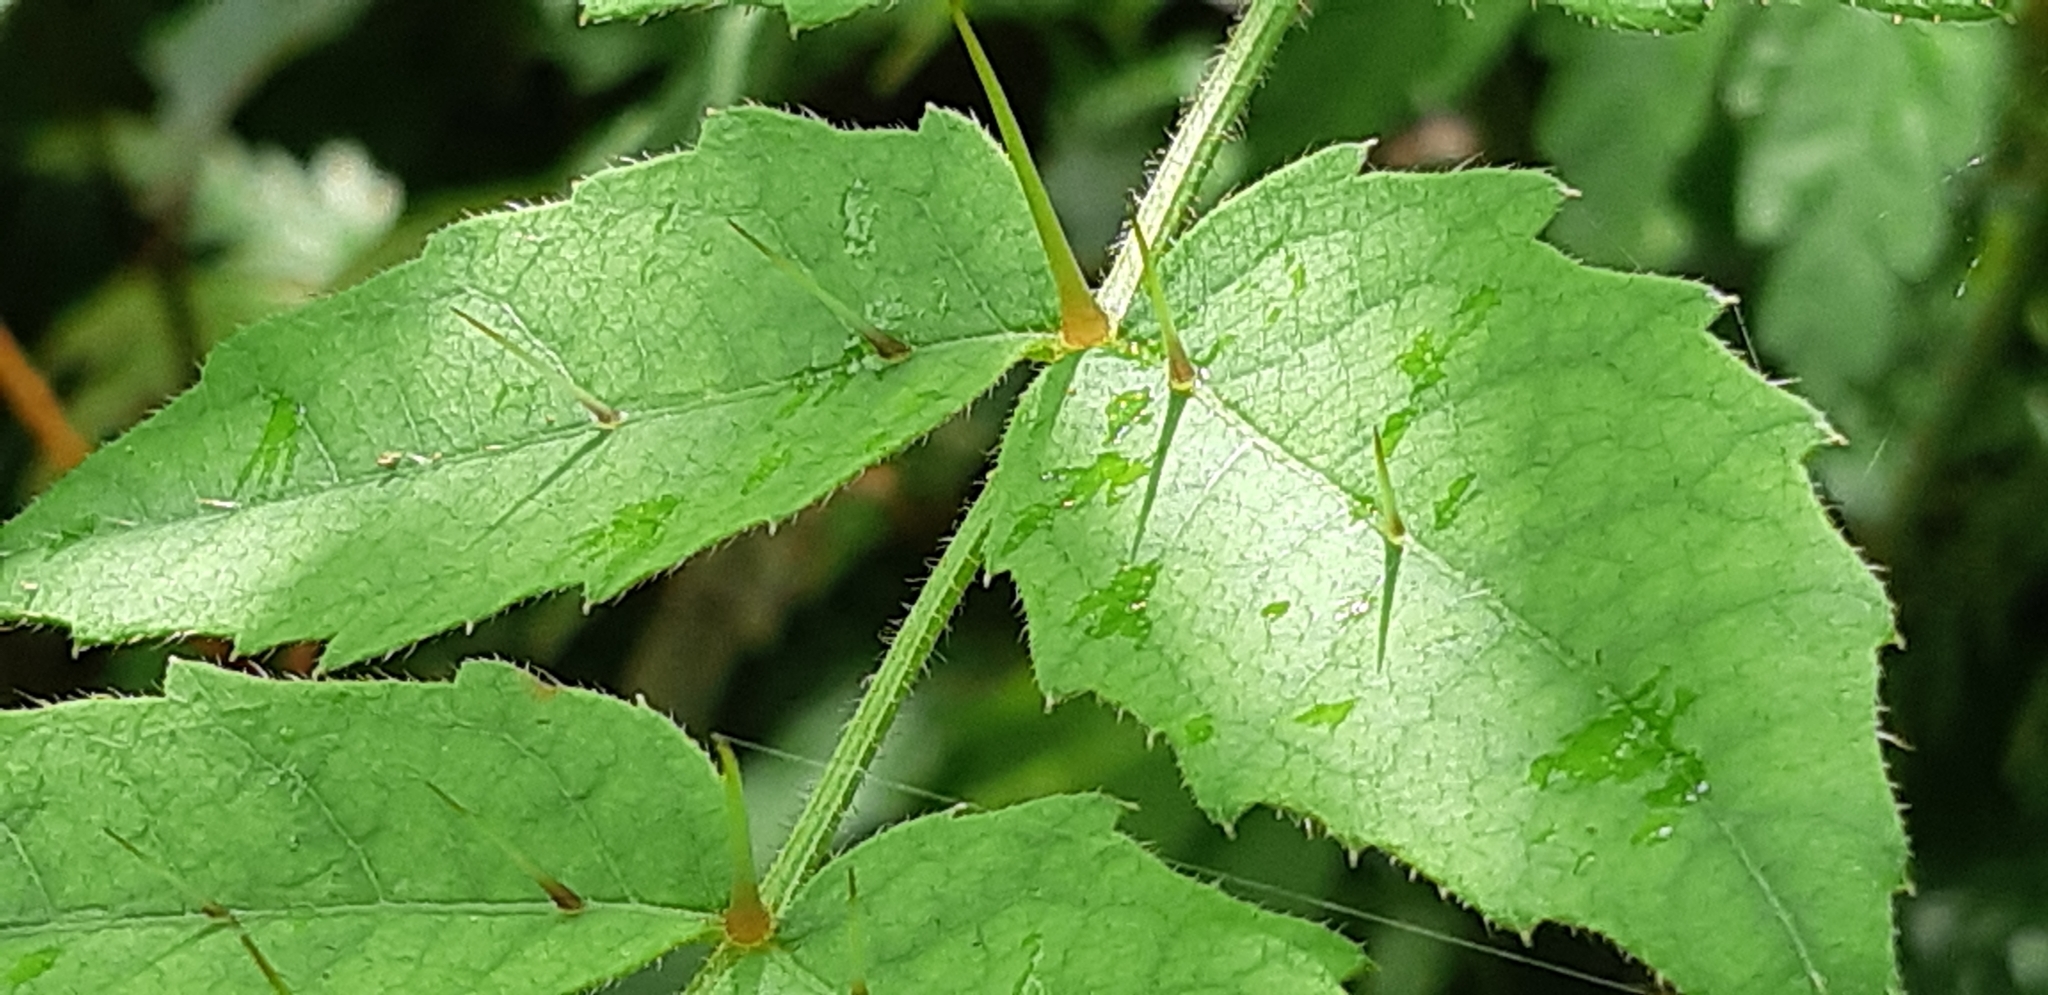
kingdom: Plantae
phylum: Tracheophyta
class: Magnoliopsida
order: Apiales
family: Araliaceae
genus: Aralia
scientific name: Aralia decaisneana
